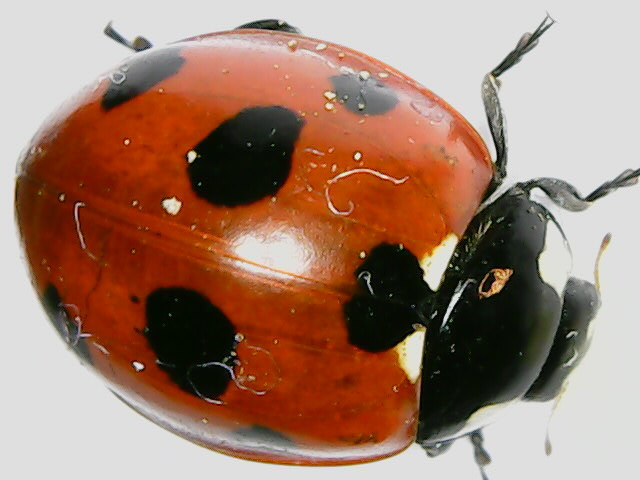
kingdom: Animalia
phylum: Arthropoda
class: Insecta
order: Coleoptera
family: Coccinellidae
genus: Coccinella
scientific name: Coccinella septempunctata
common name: Sevenspotted lady beetle
